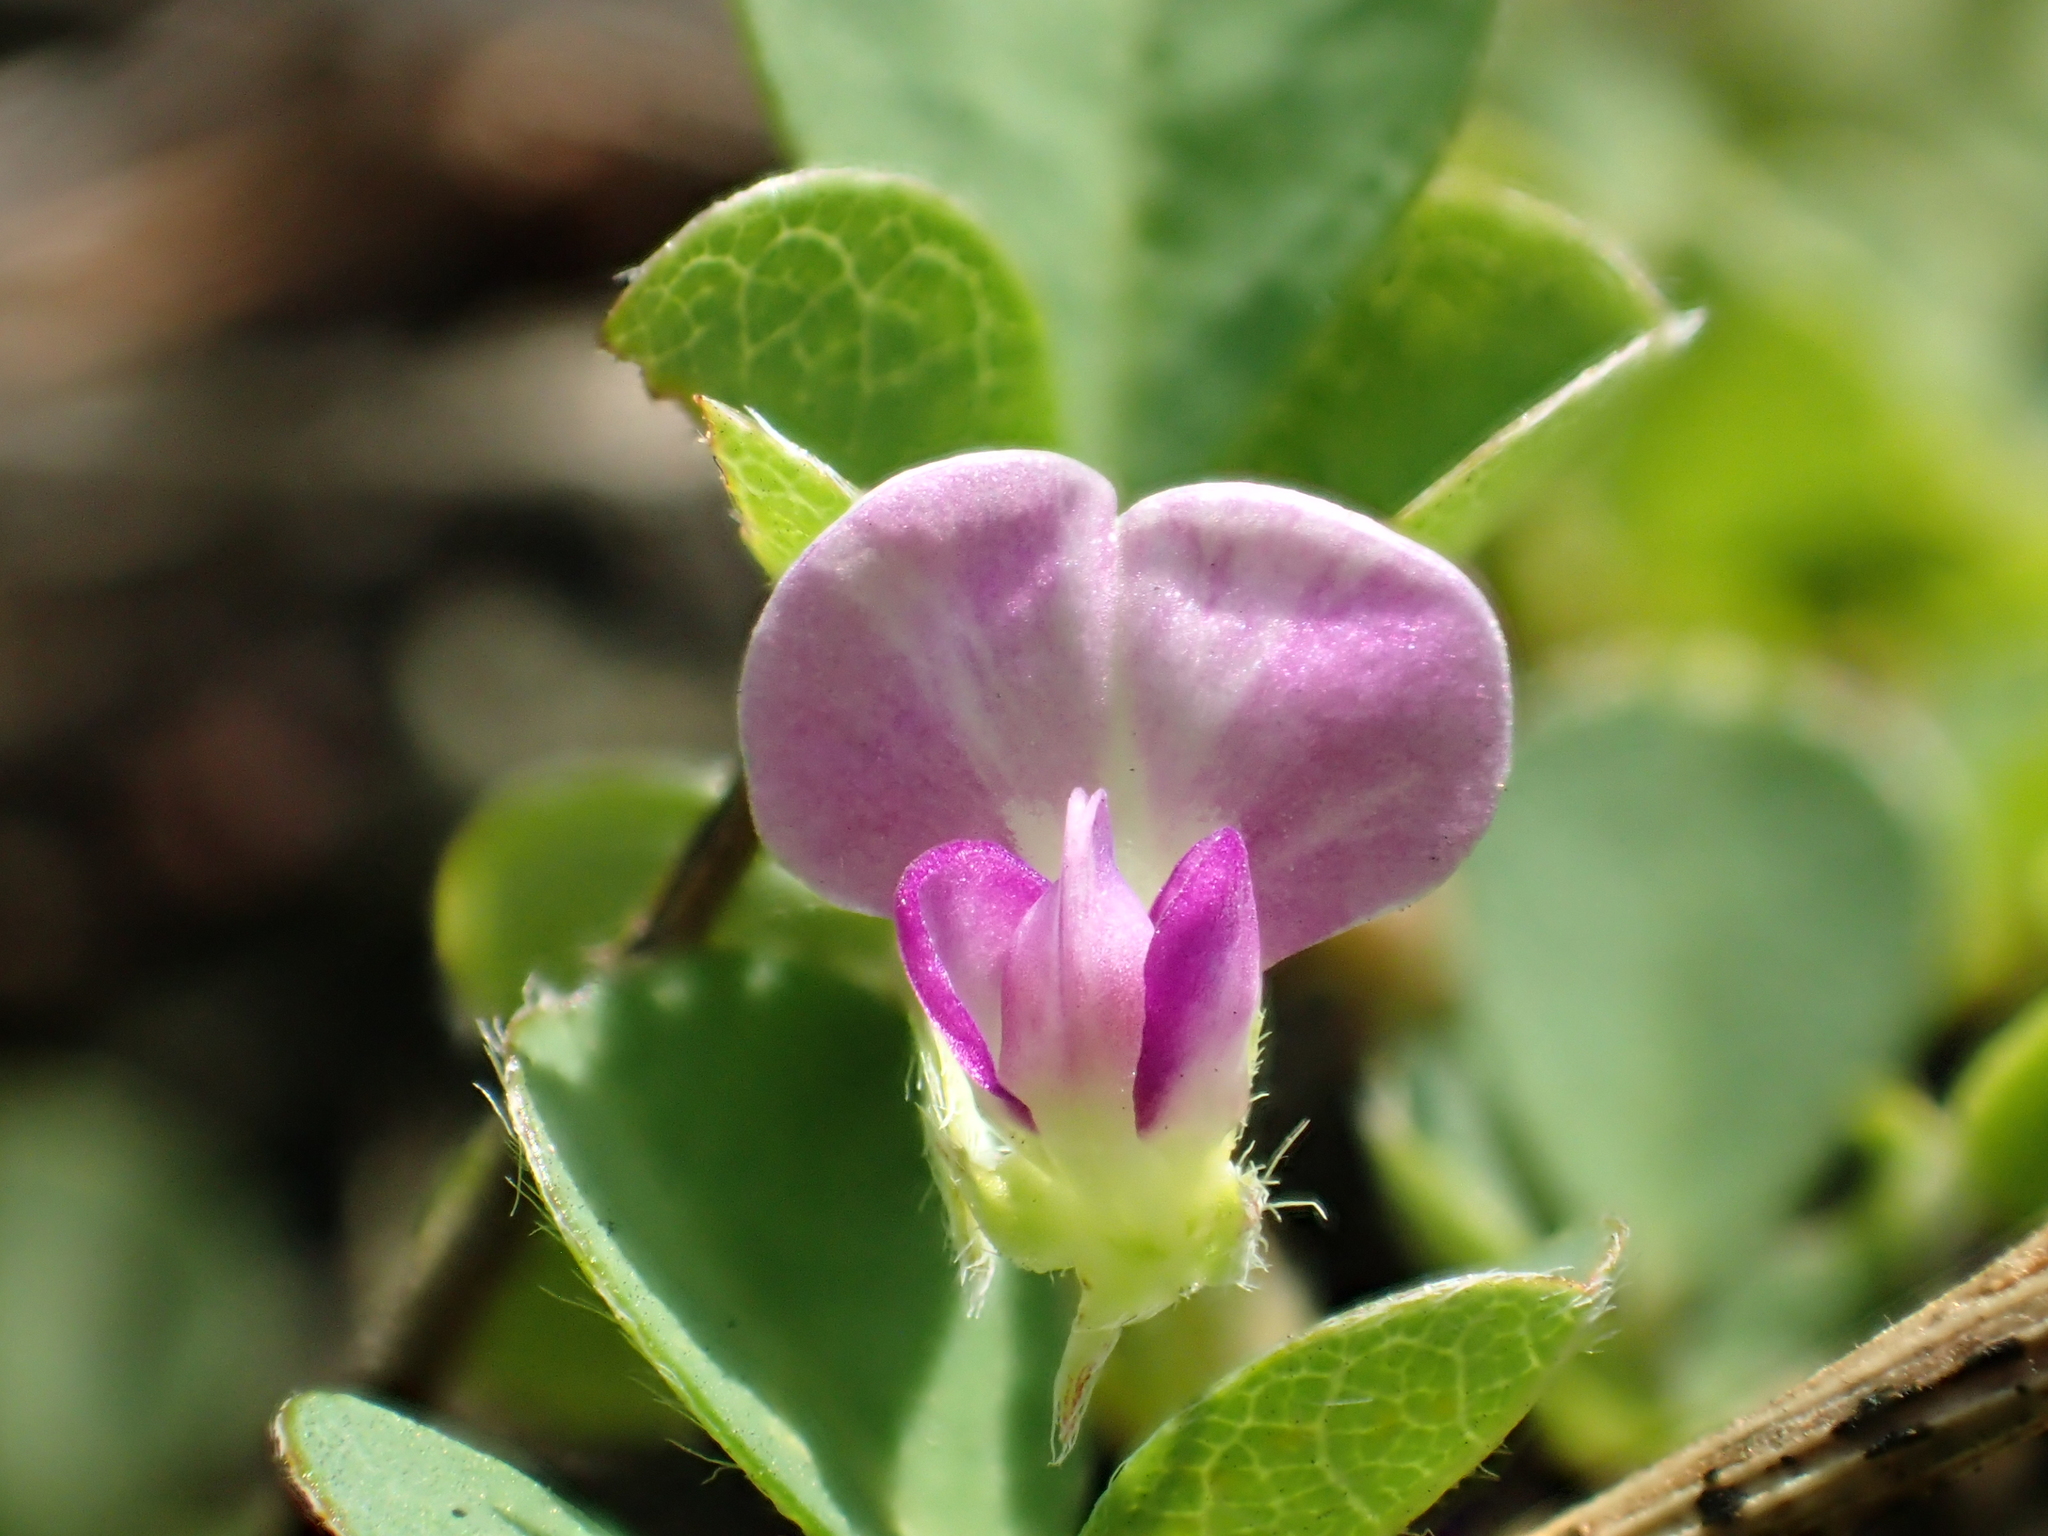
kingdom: Plantae
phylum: Tracheophyta
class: Magnoliopsida
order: Fabales
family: Fabaceae
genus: Grona
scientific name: Grona triflora
